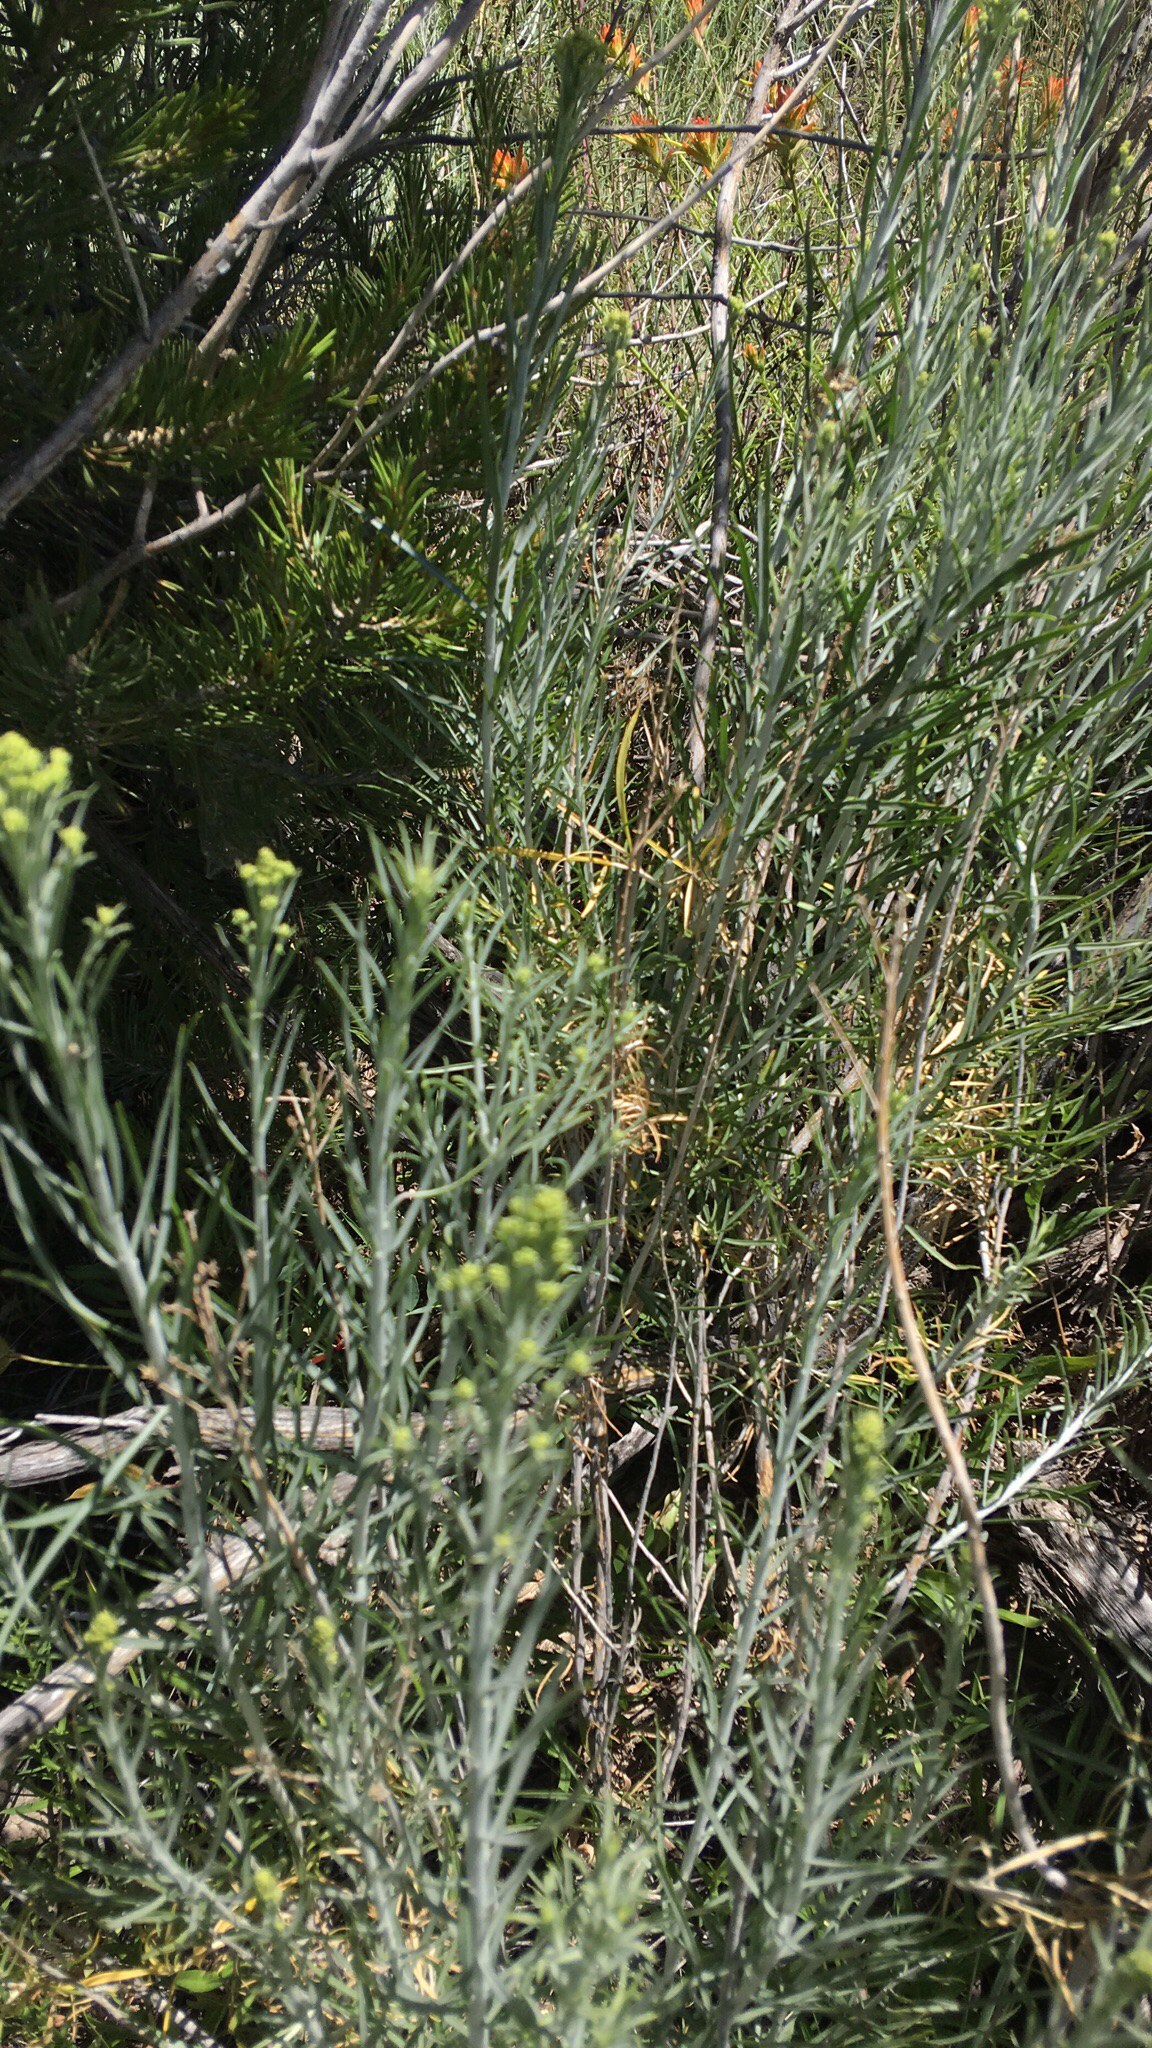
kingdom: Plantae
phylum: Tracheophyta
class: Magnoliopsida
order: Asterales
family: Asteraceae
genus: Ericameria
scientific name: Ericameria nauseosa
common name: Rubber rabbitbrush
